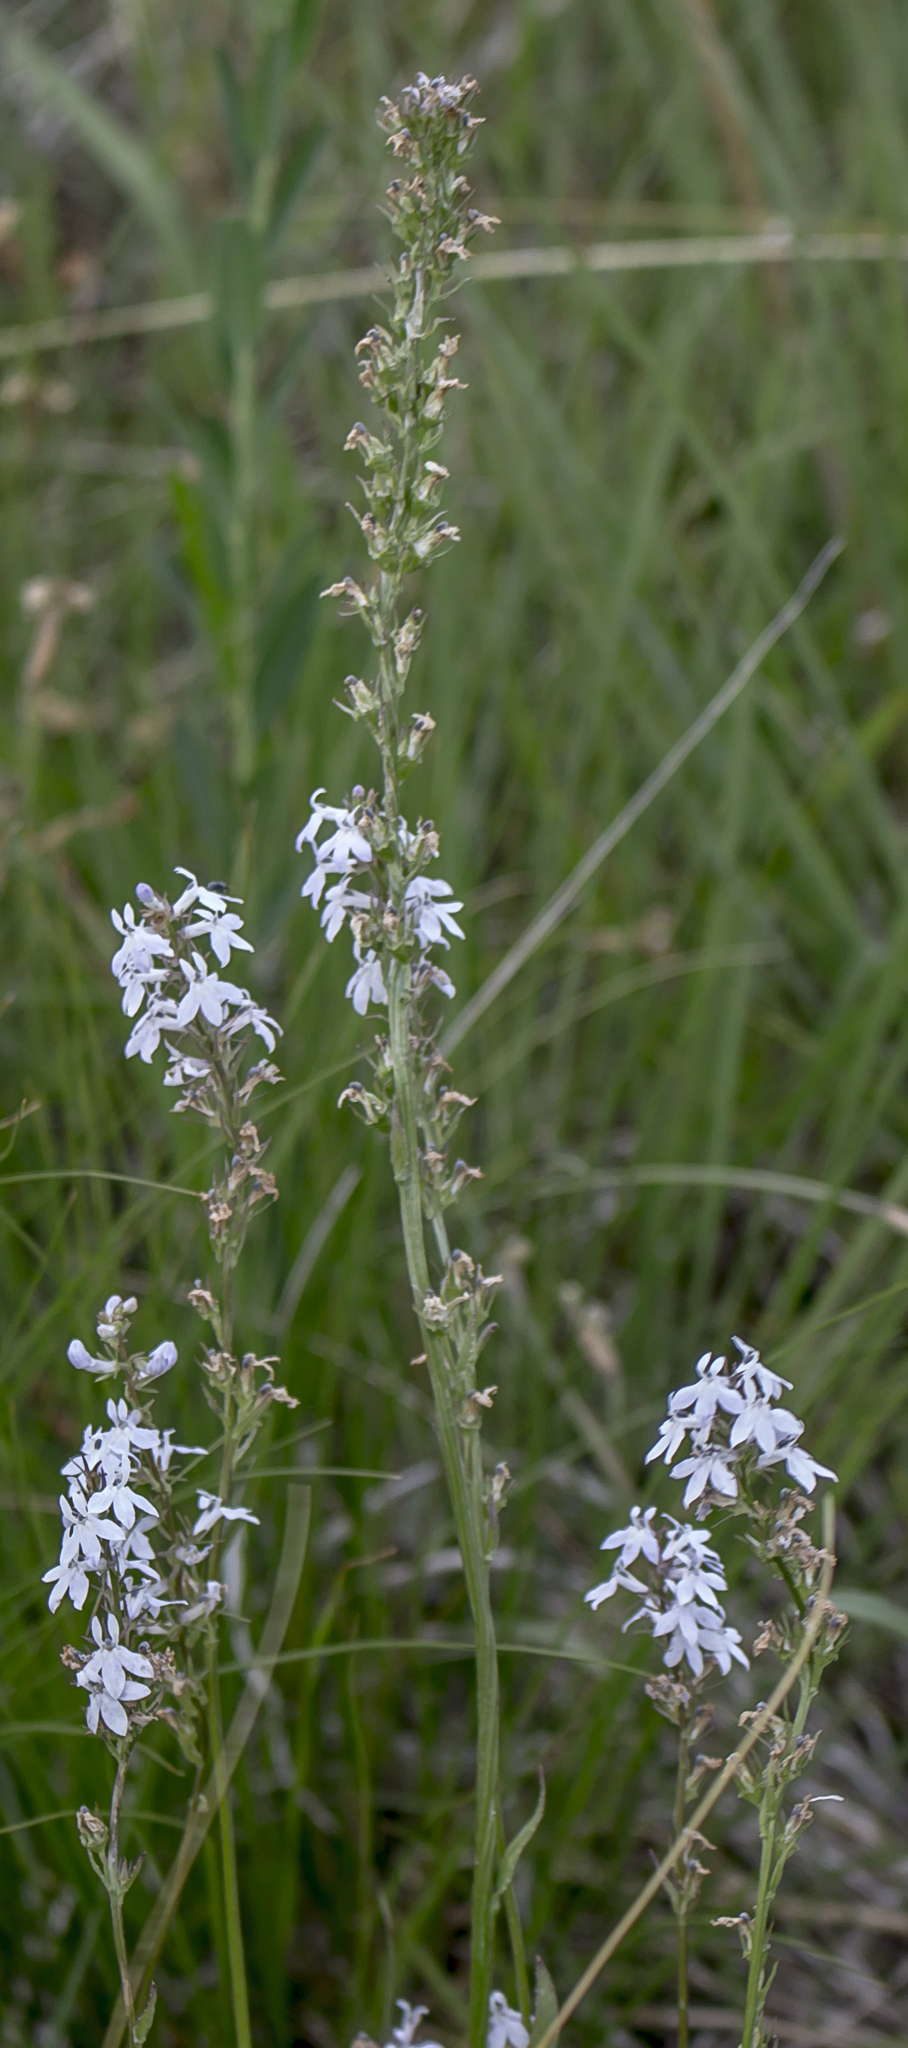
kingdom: Plantae
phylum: Tracheophyta
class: Magnoliopsida
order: Asterales
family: Campanulaceae
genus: Lobelia
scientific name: Lobelia spicata
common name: Pale-spike lobelia
